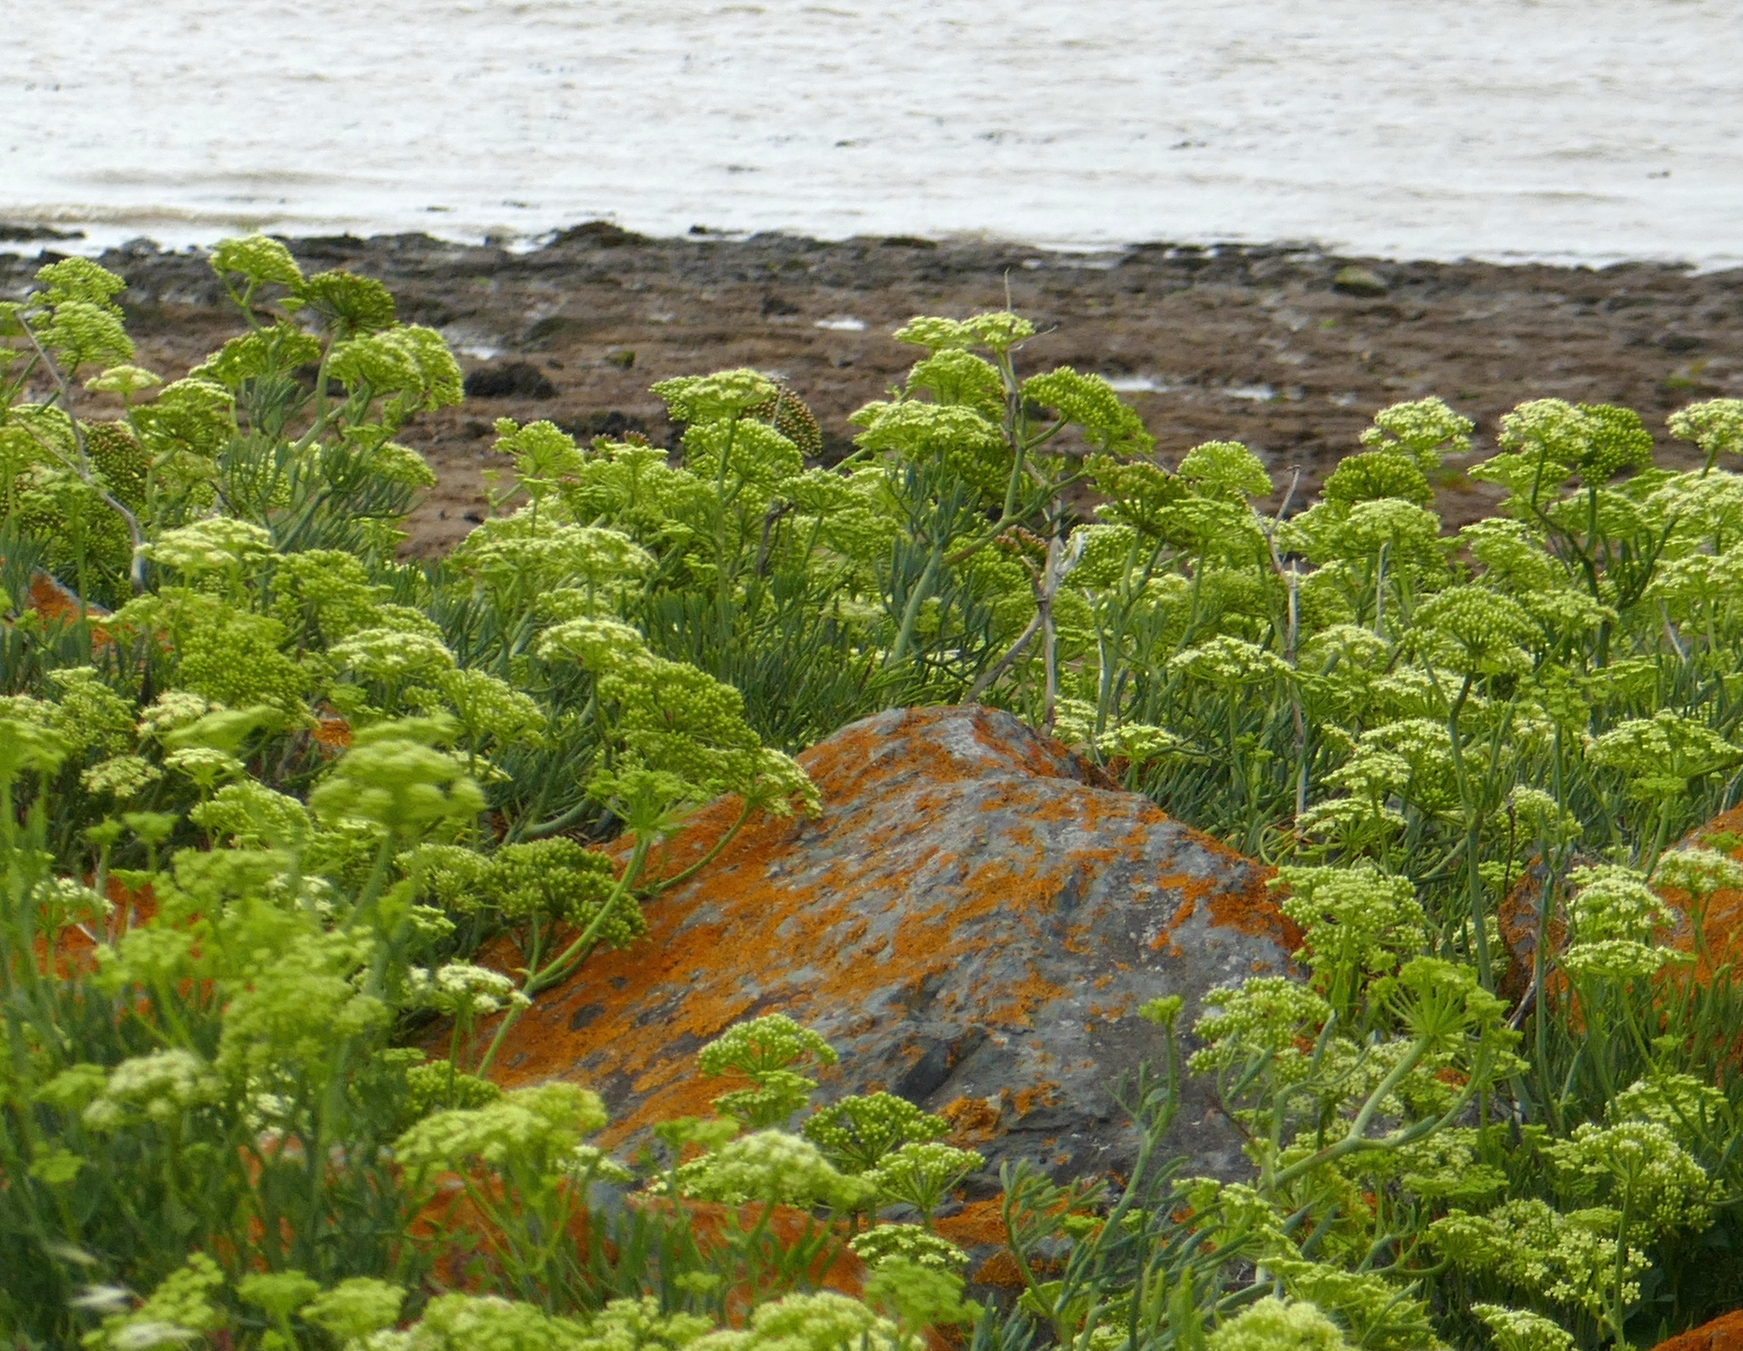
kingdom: Plantae
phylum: Tracheophyta
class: Magnoliopsida
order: Apiales
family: Apiaceae
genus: Crithmum
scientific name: Crithmum maritimum
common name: Rock samphire
